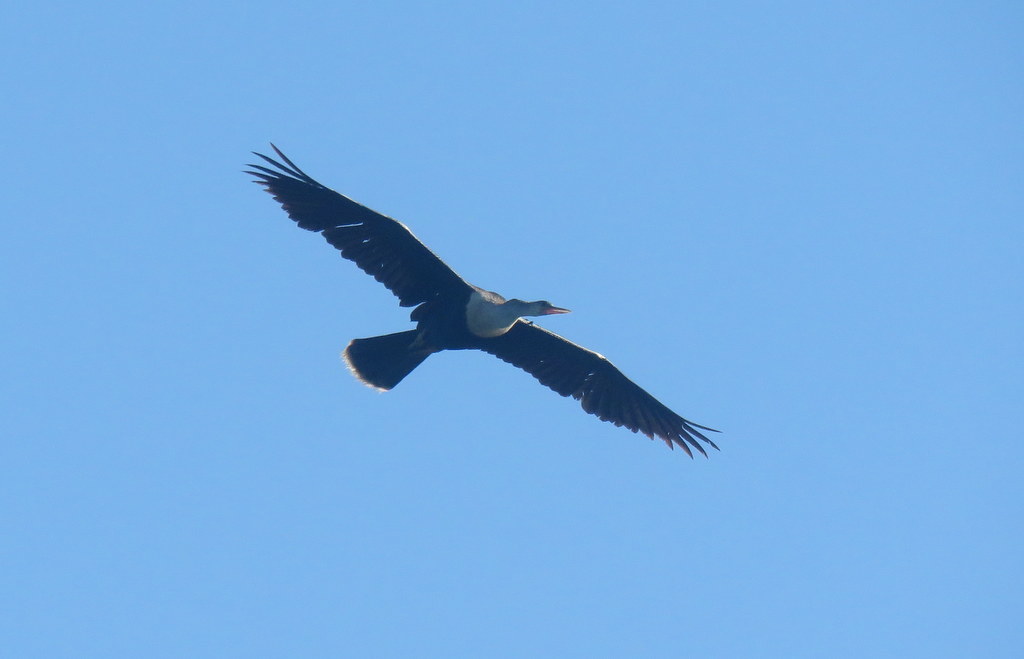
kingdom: Animalia
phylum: Chordata
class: Aves
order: Suliformes
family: Anhingidae
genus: Anhinga
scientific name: Anhinga anhinga
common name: Anhinga
